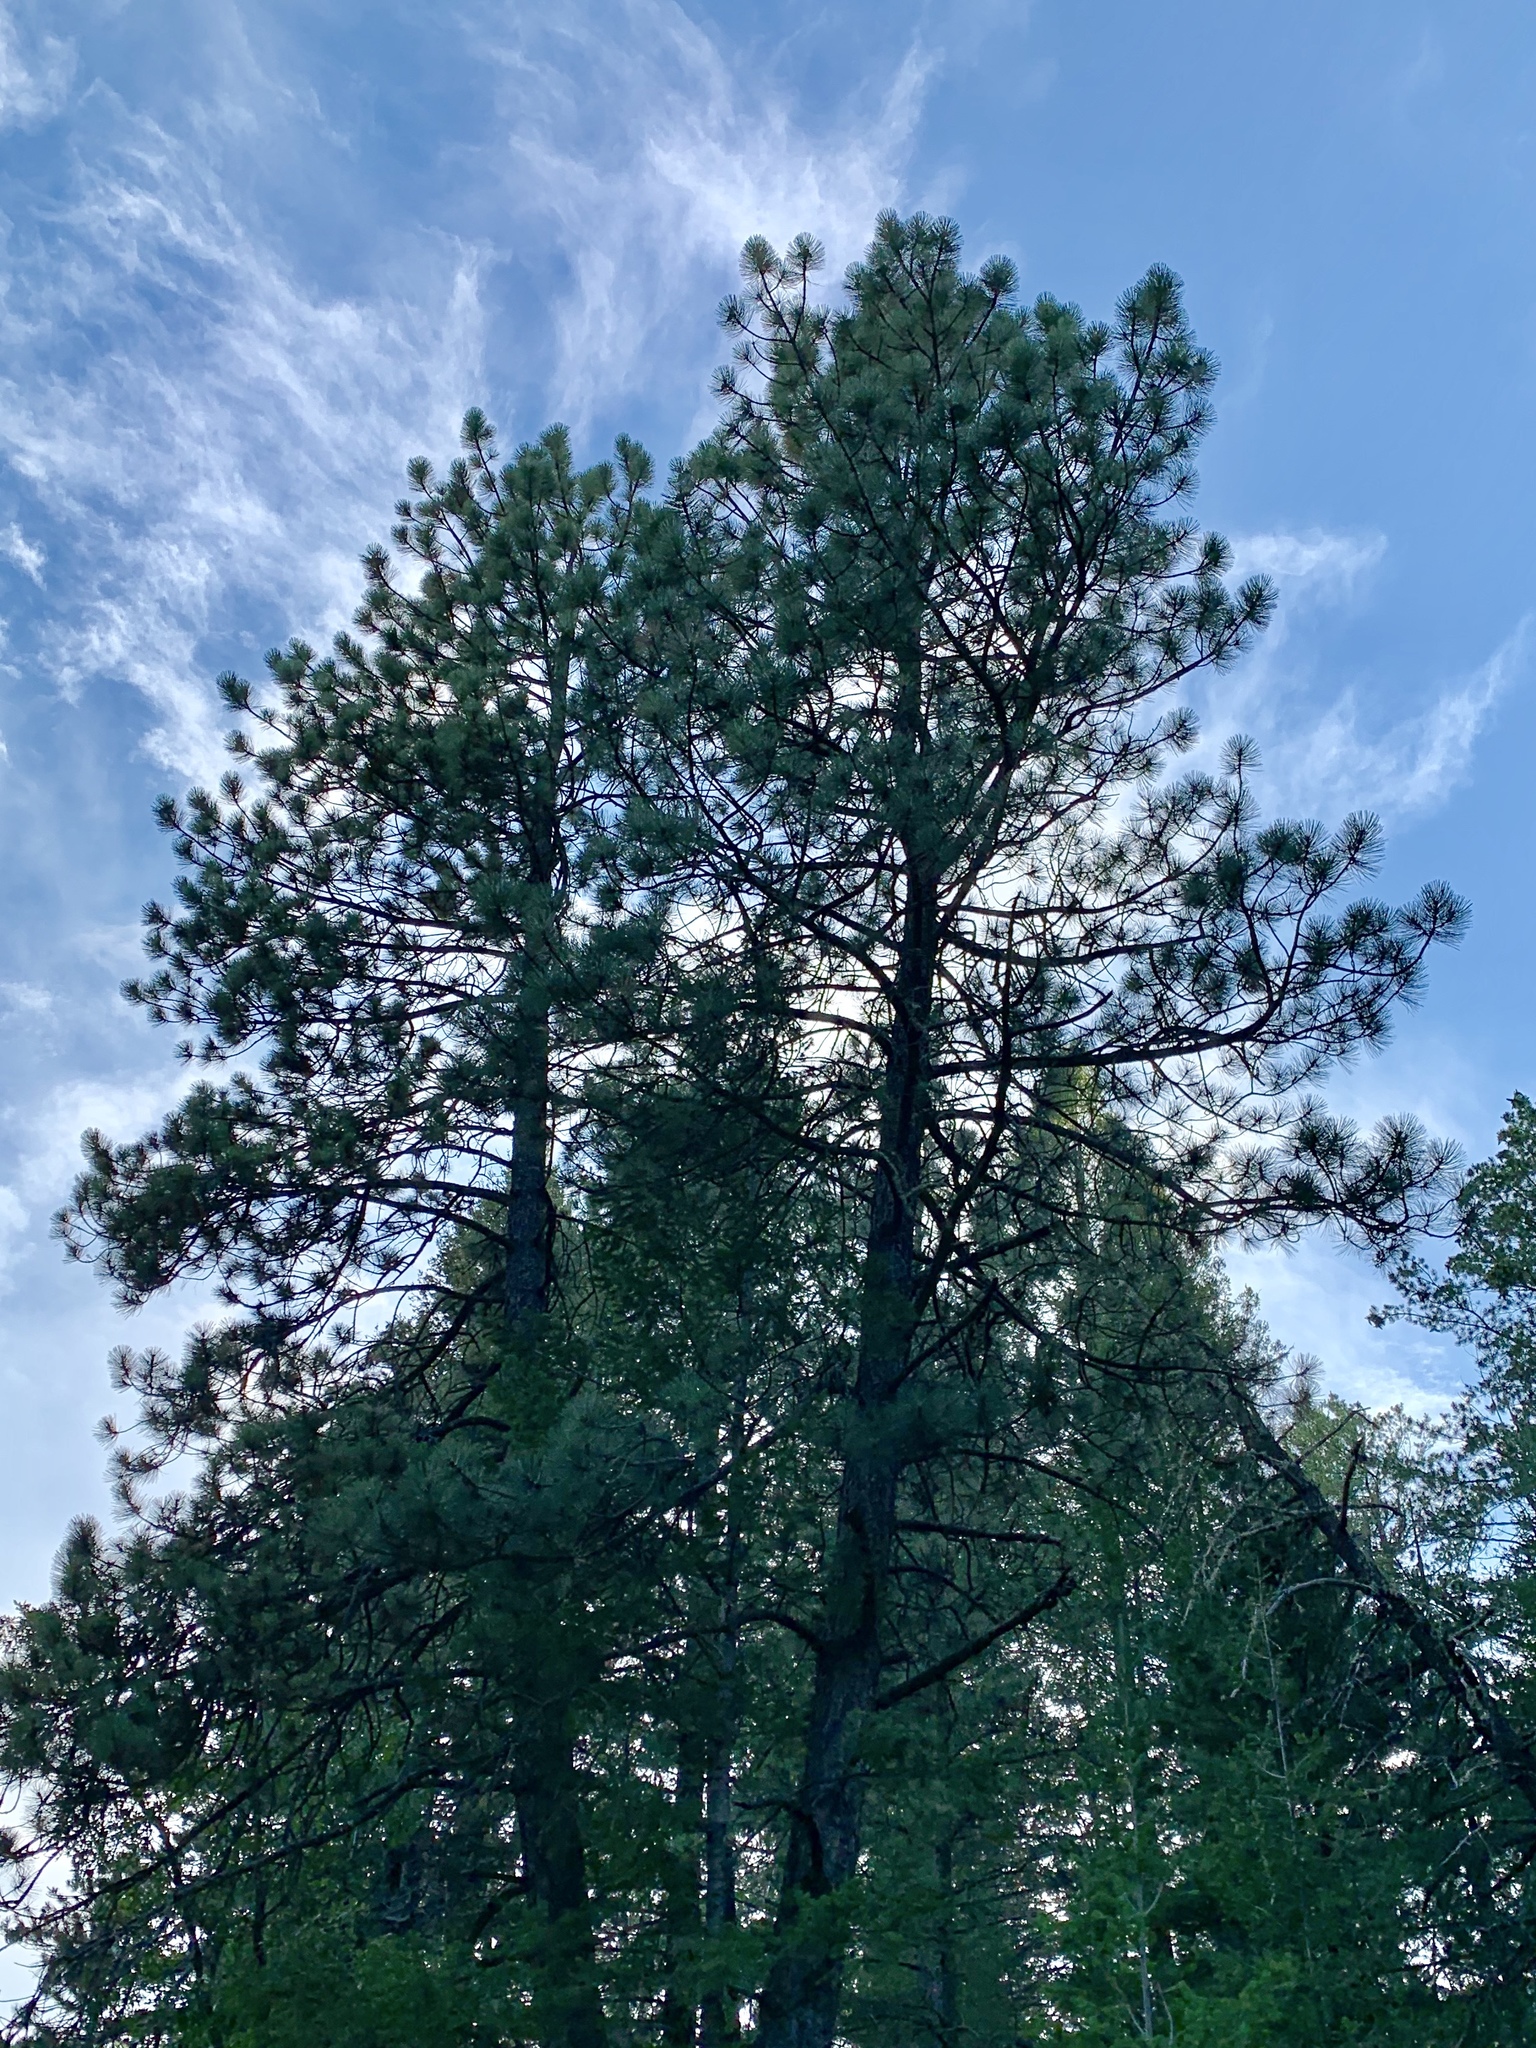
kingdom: Plantae
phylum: Tracheophyta
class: Pinopsida
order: Pinales
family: Pinaceae
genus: Pinus
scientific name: Pinus ponderosa
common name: Western yellow-pine
